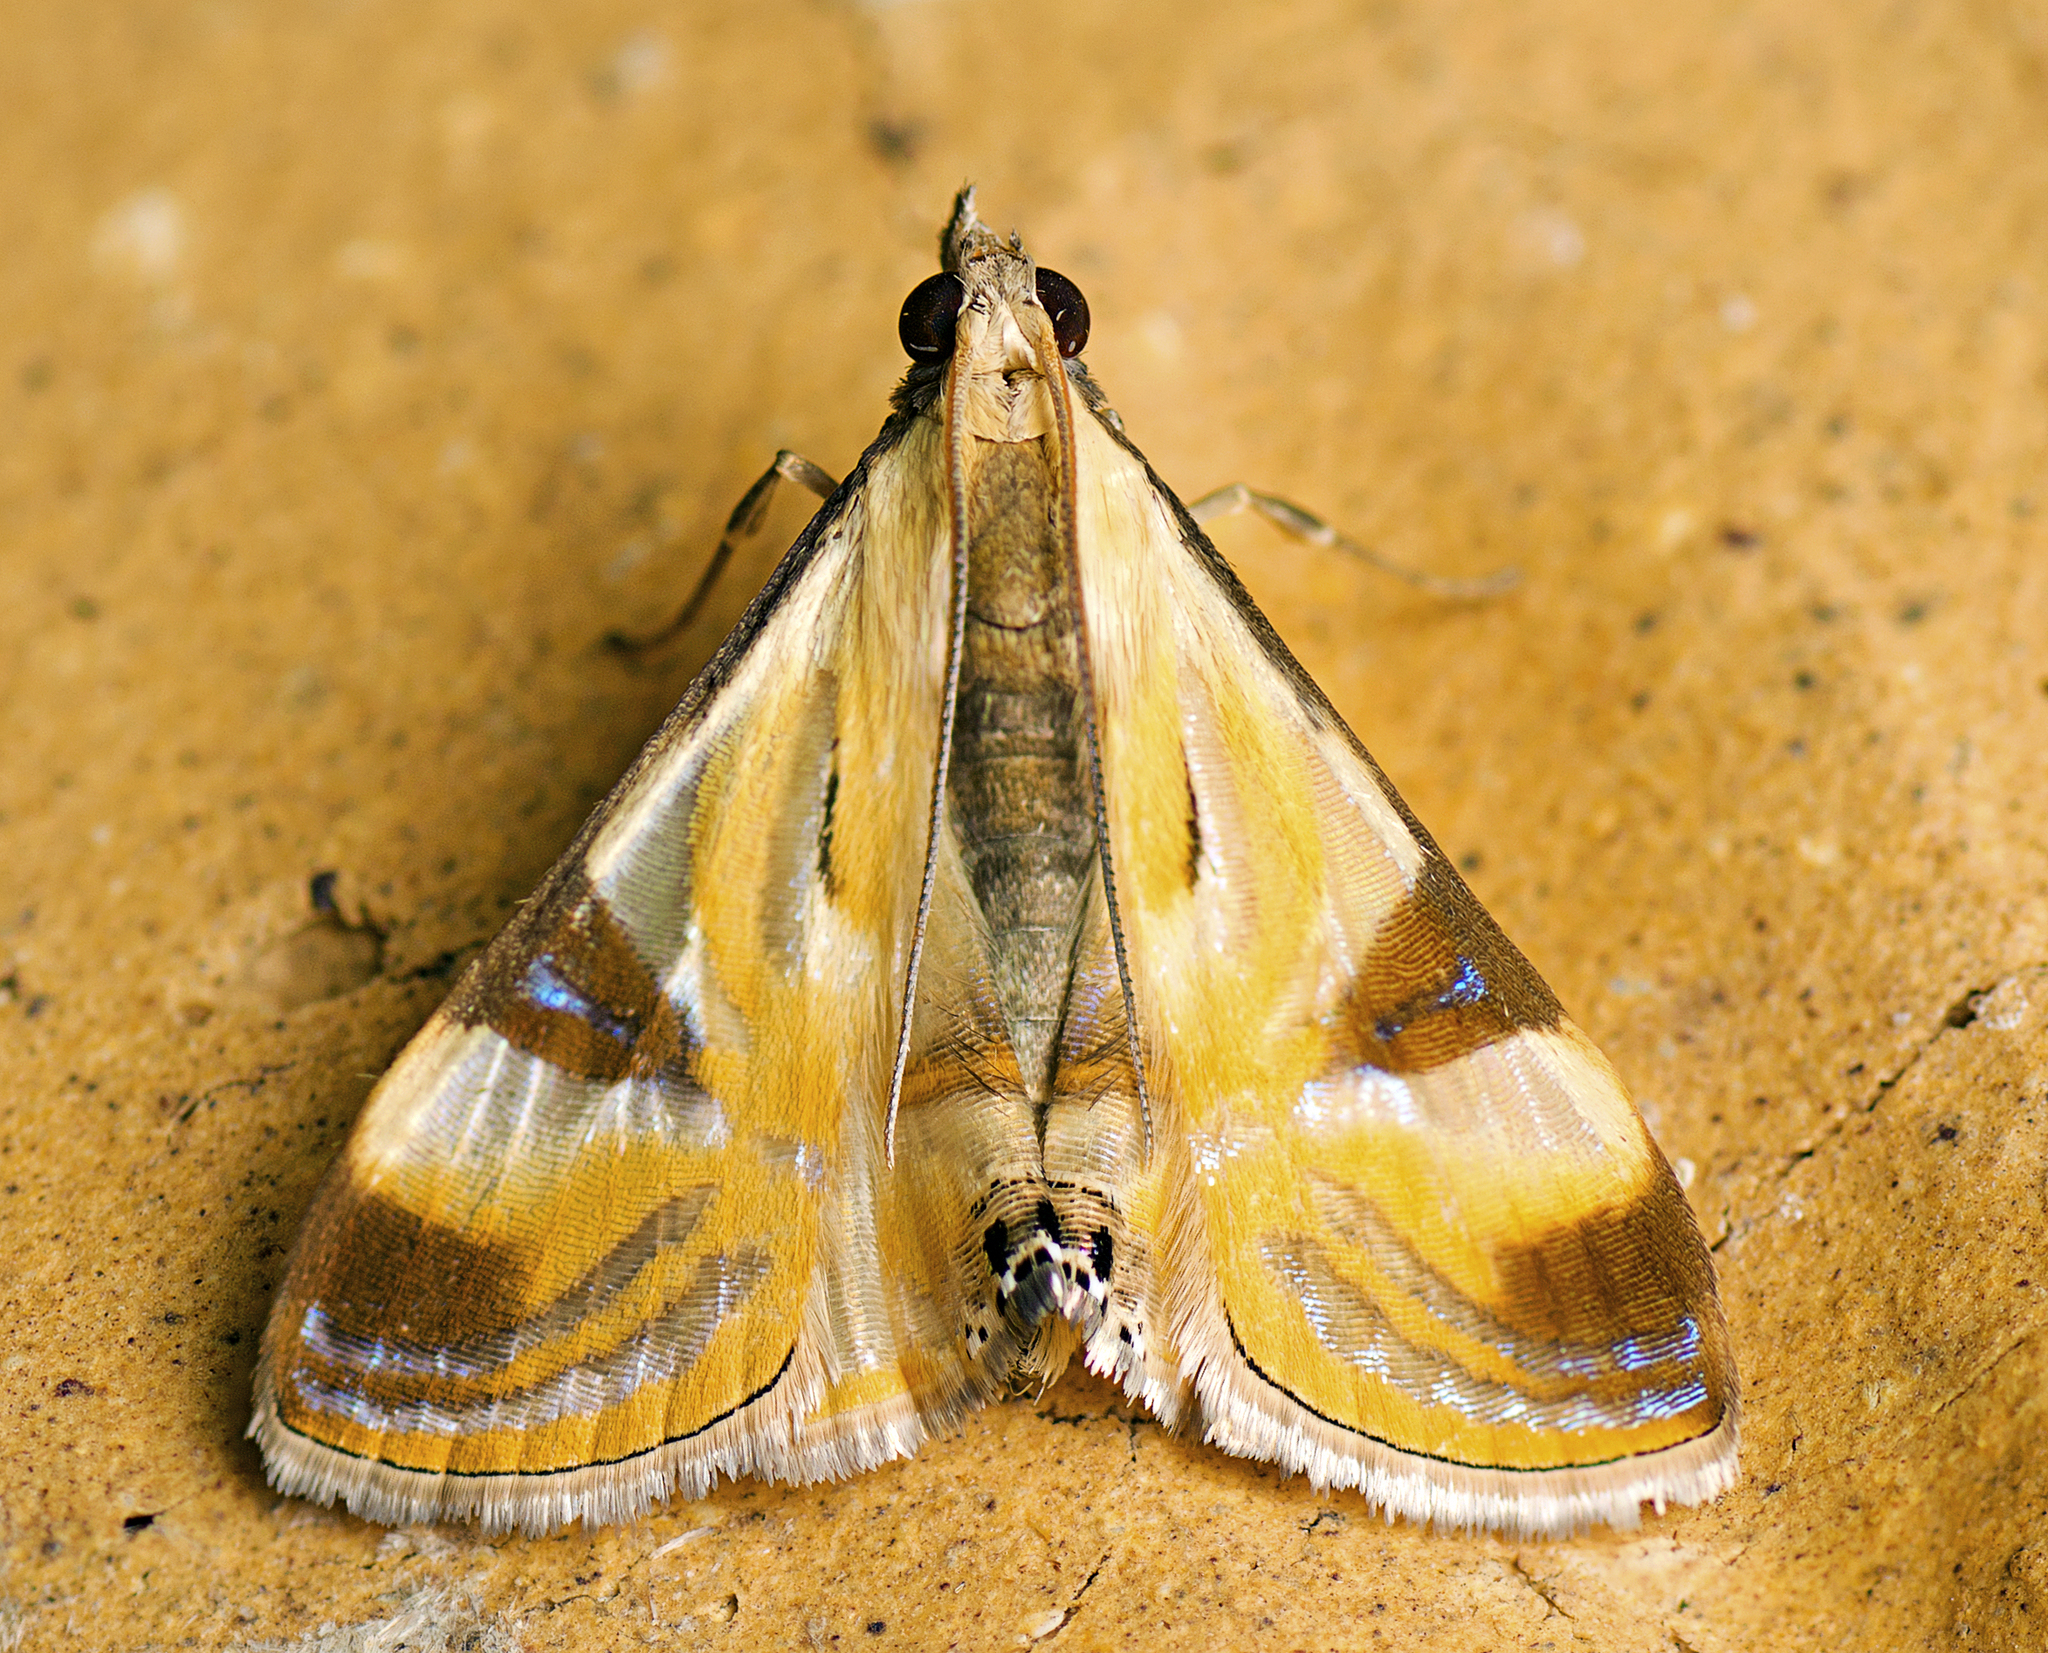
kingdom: Animalia
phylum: Arthropoda
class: Insecta
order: Lepidoptera
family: Crambidae
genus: Talanga
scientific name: Talanga tolumnialis
